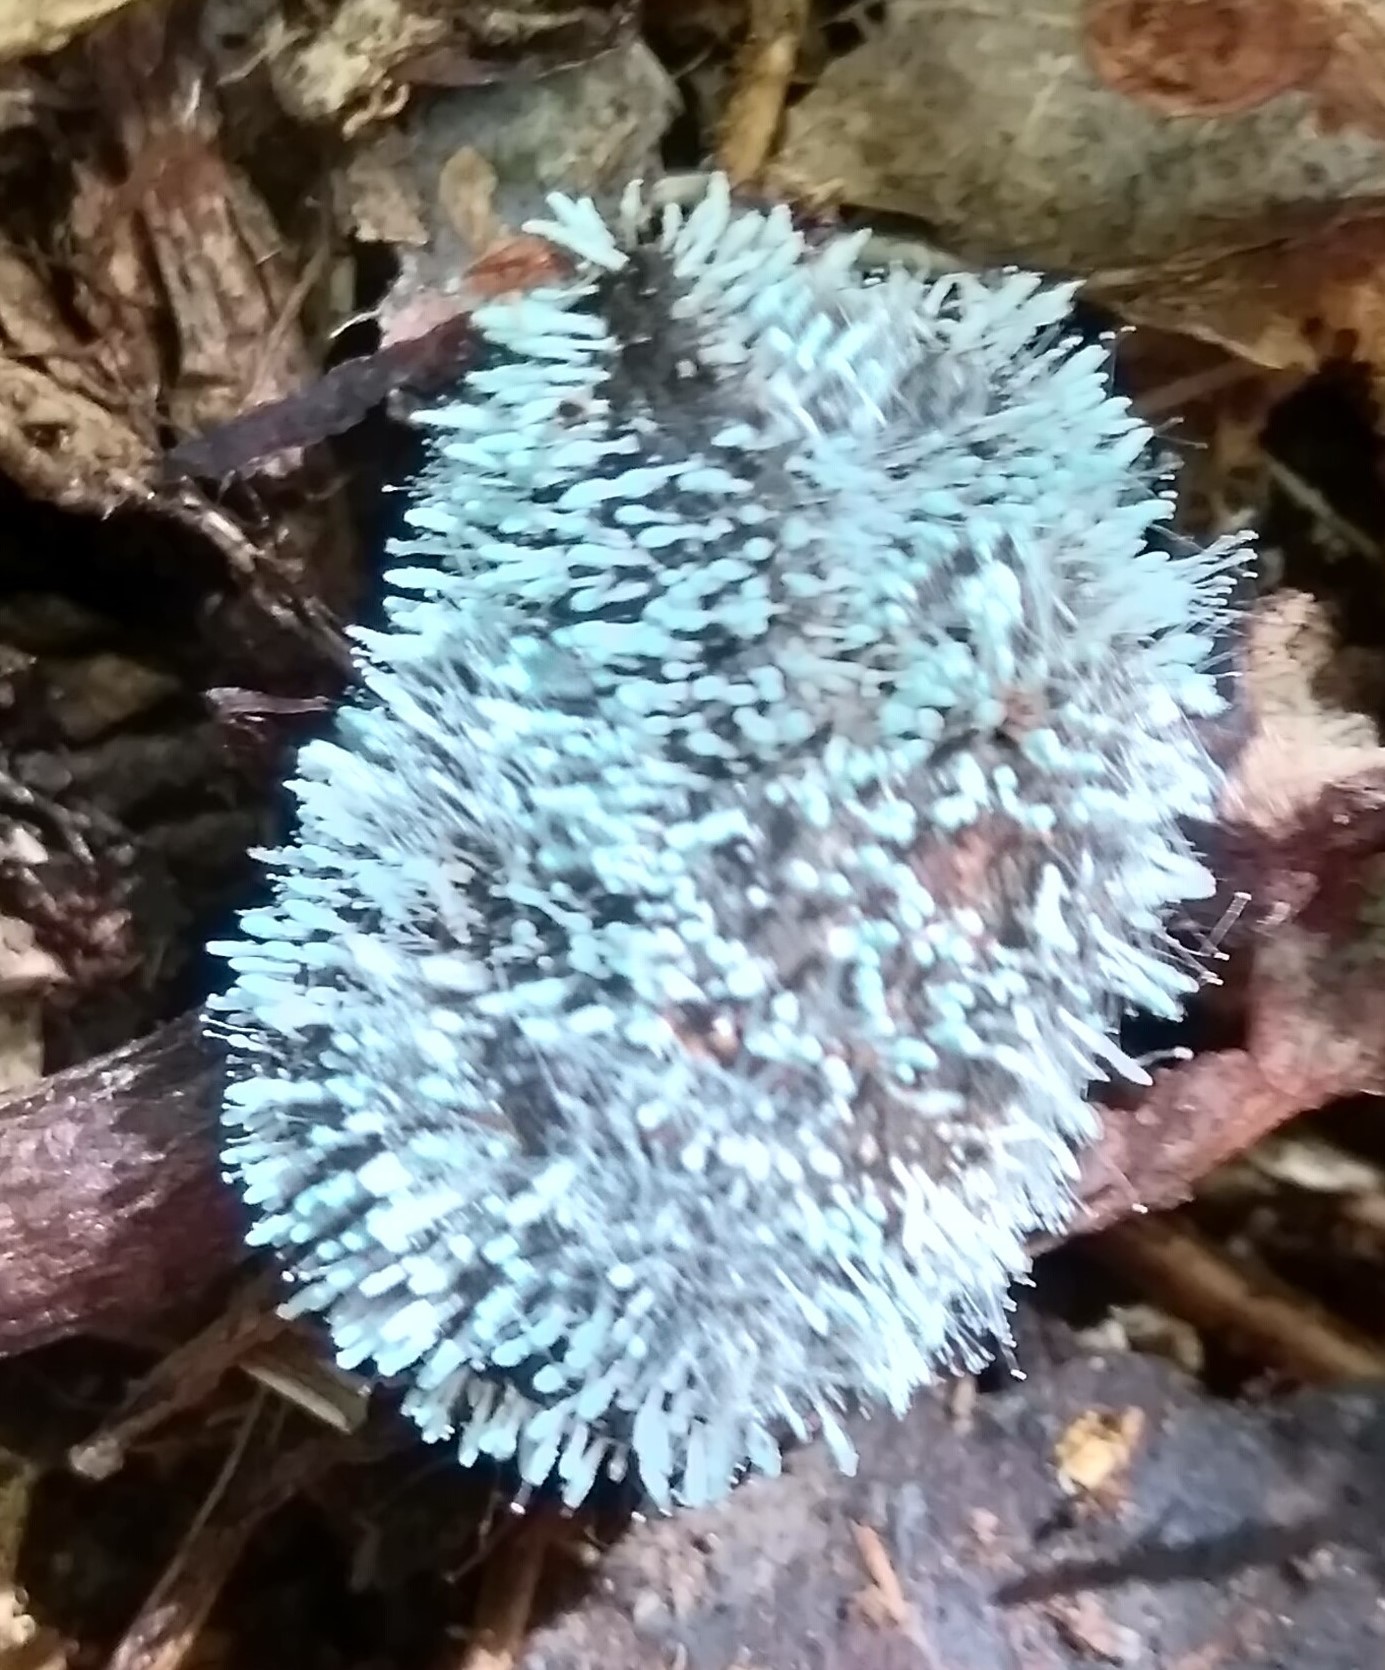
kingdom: Fungi
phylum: Ascomycota
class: Eurotiomycetes
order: Eurotiales
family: Aspergillaceae
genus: Penicillium
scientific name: Penicillium vulpinum
